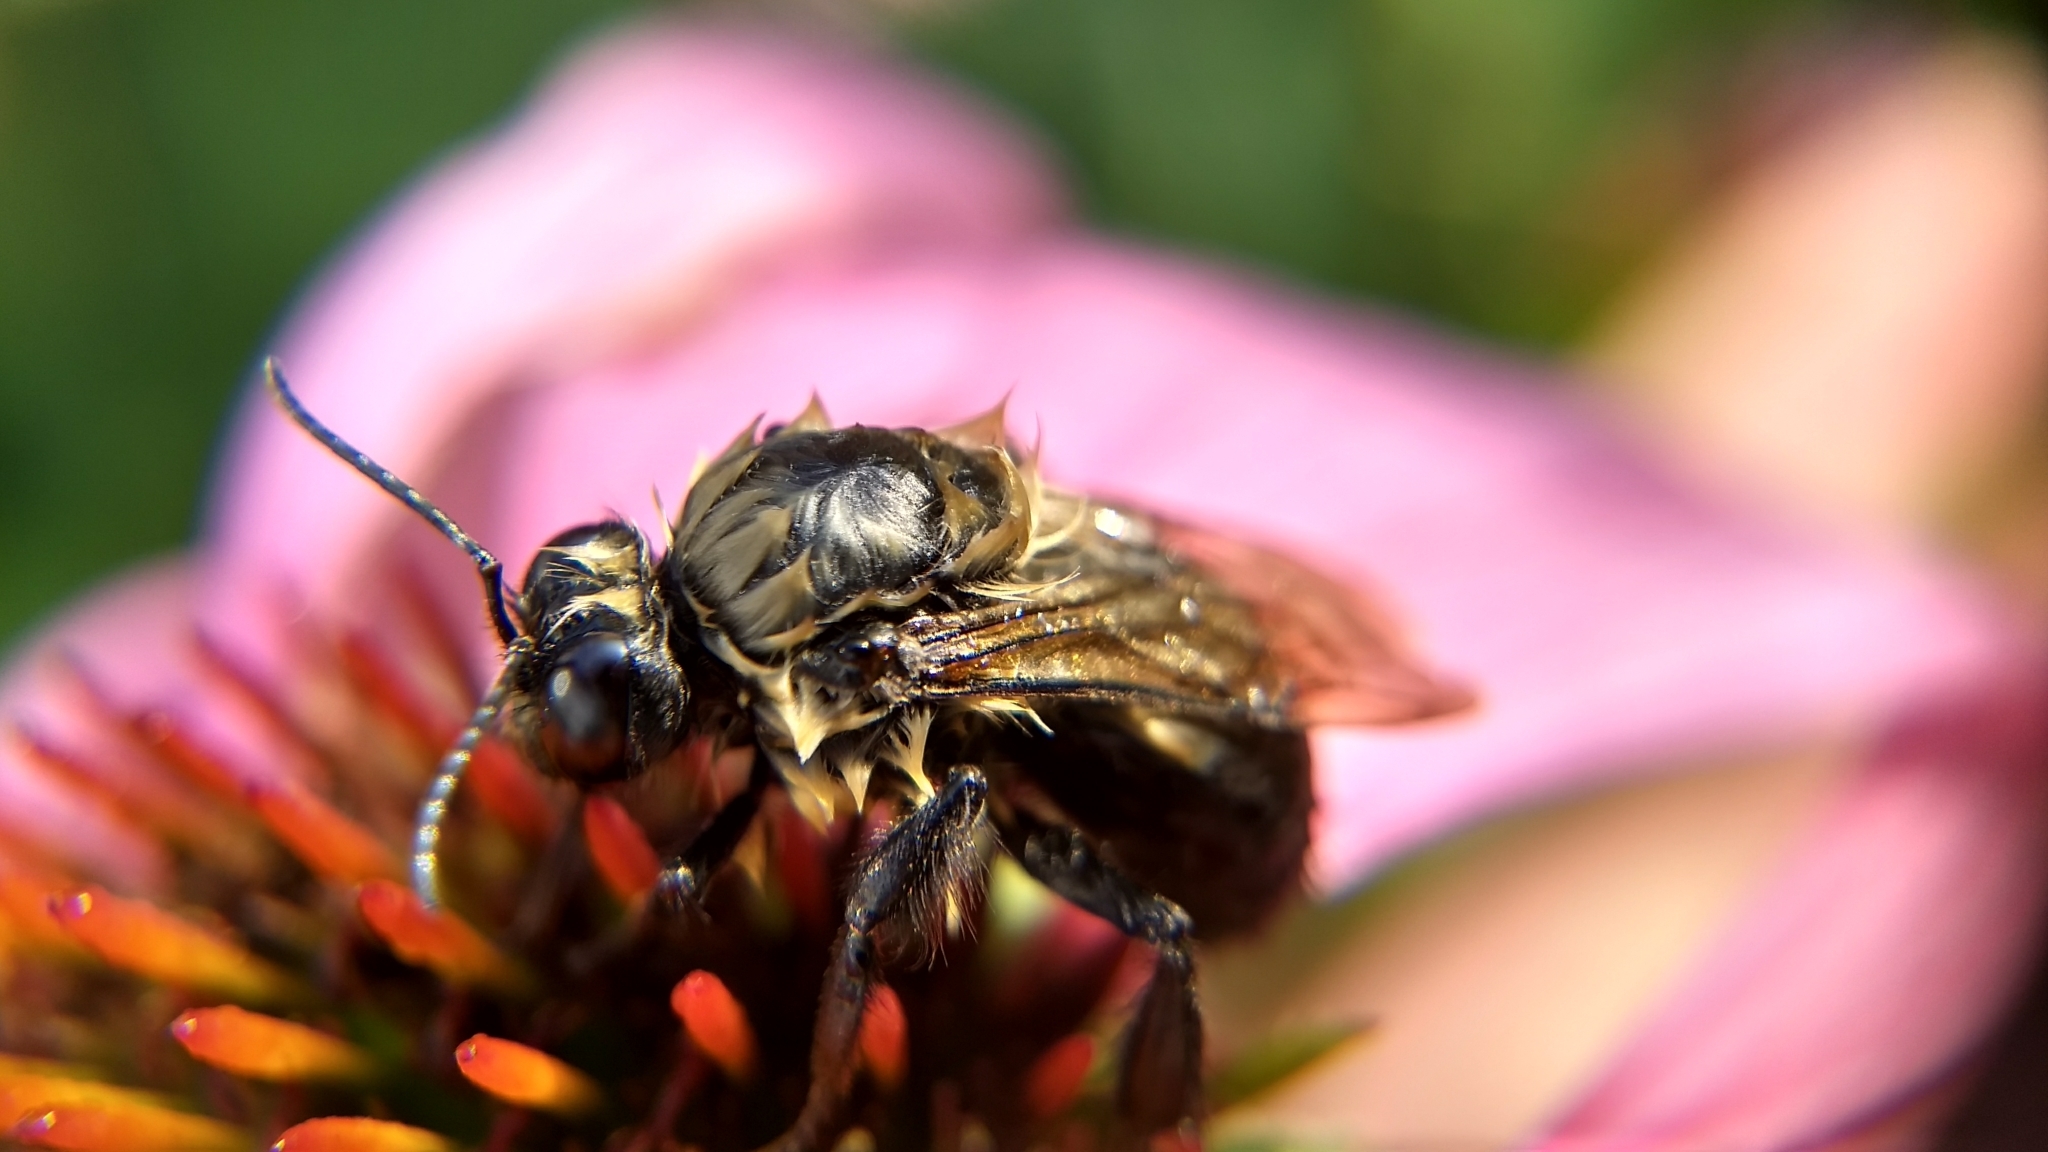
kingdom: Animalia
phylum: Arthropoda
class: Insecta
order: Hymenoptera
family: Apidae
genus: Bombus
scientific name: Bombus griseocollis
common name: Brown-belted bumble bee
